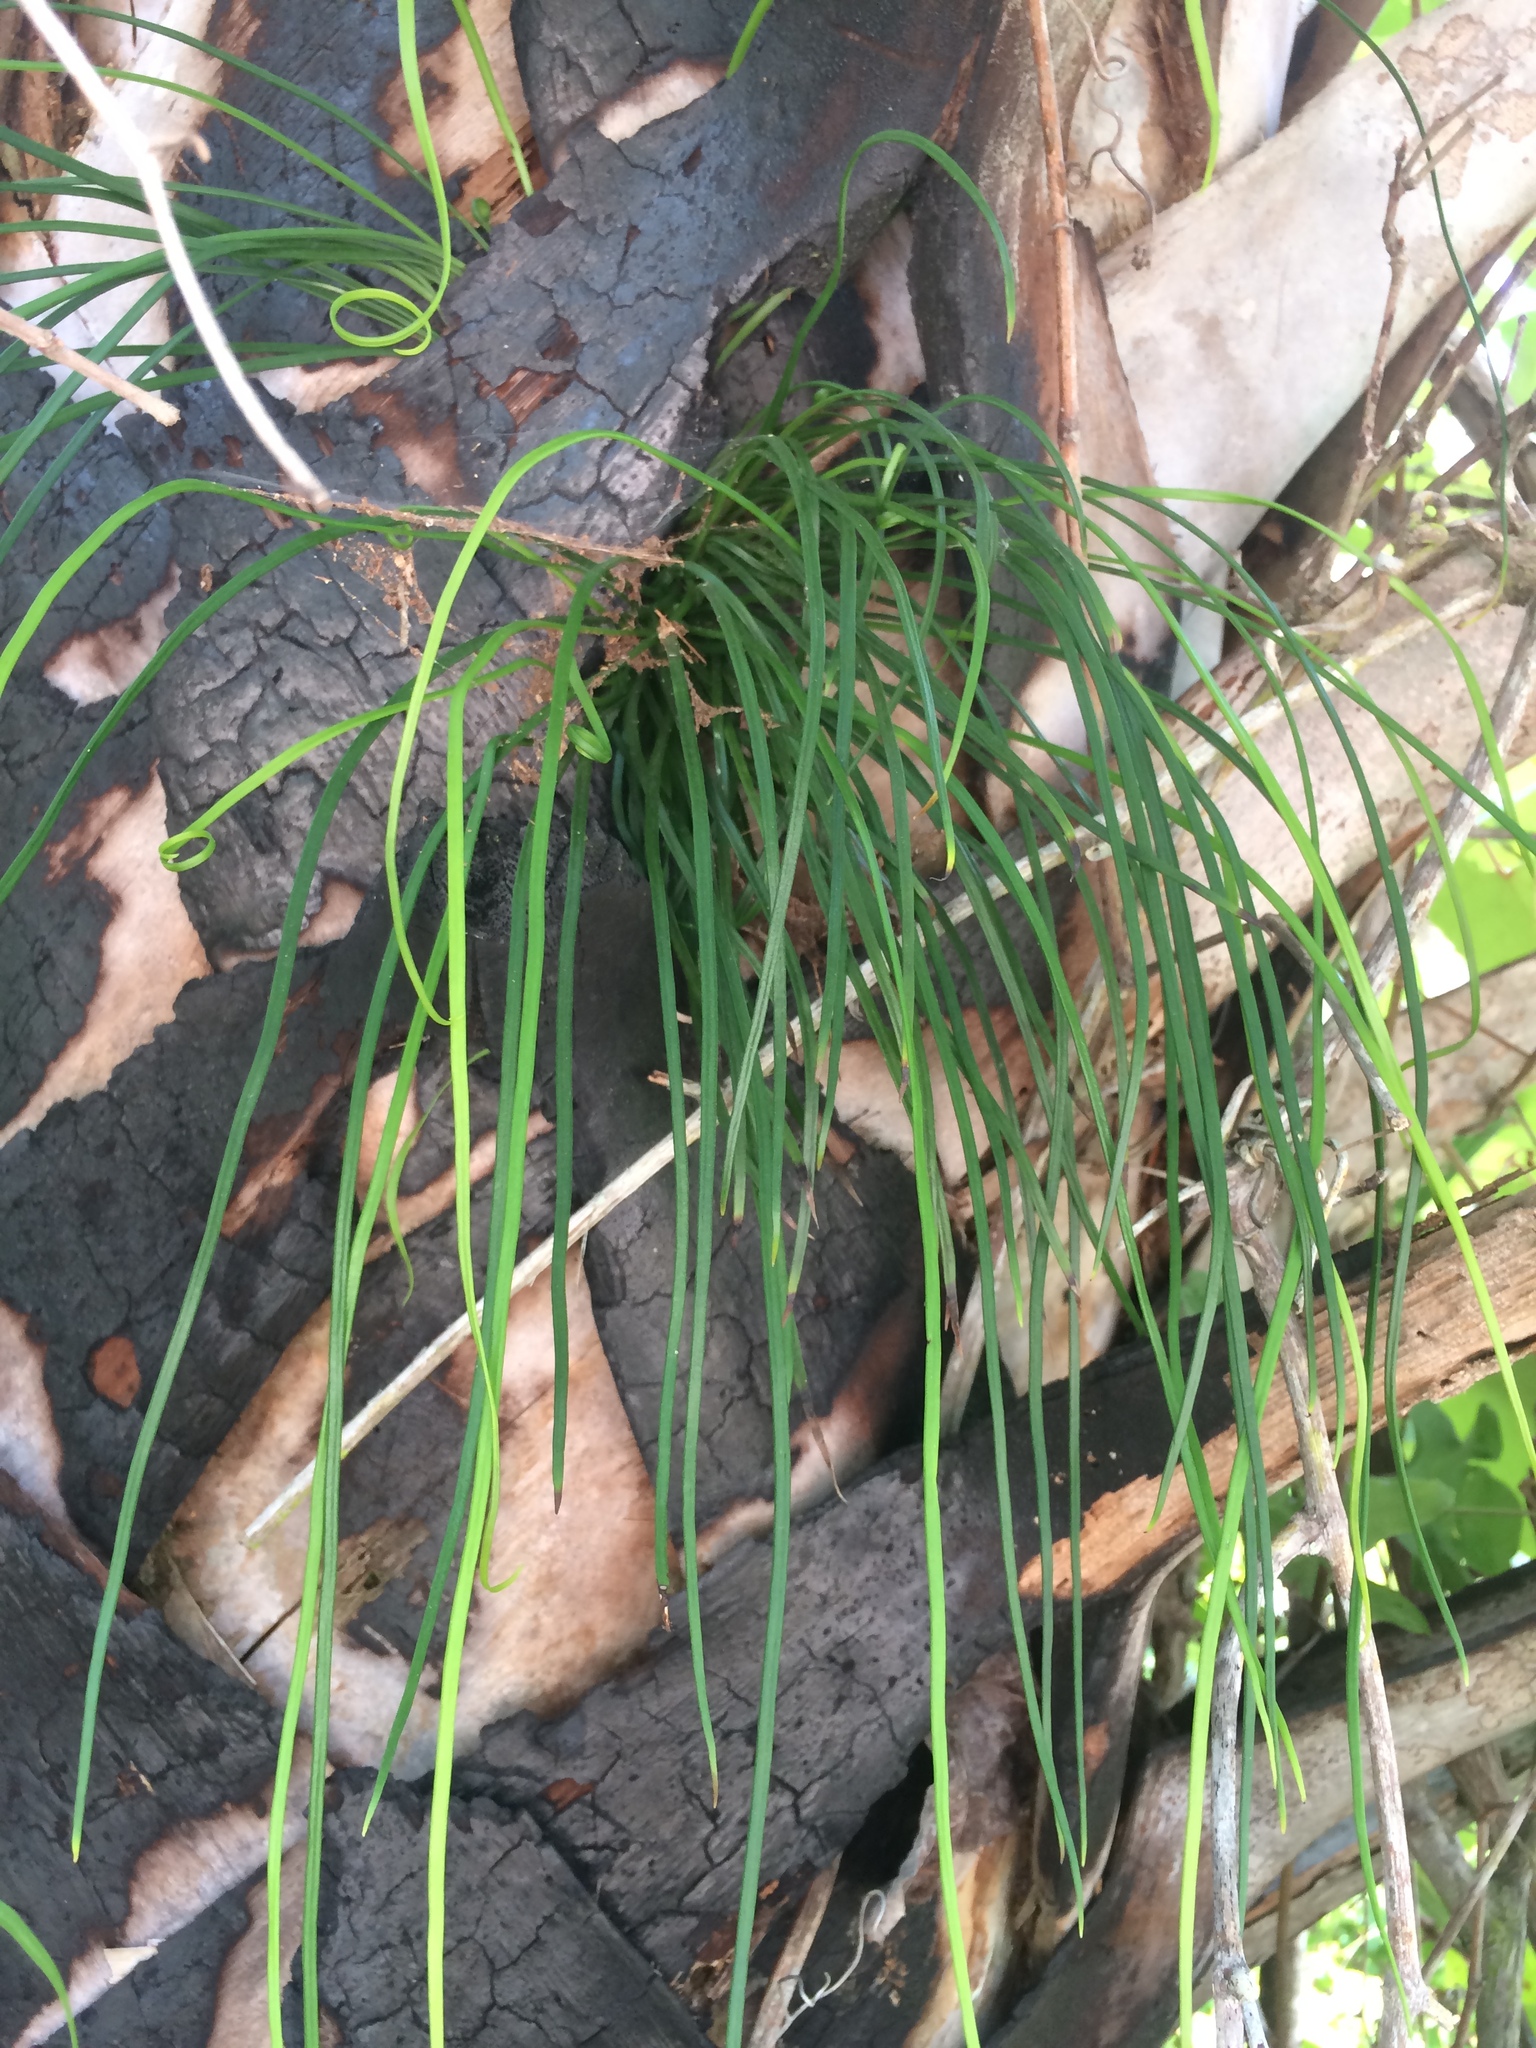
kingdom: Plantae
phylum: Tracheophyta
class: Polypodiopsida
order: Polypodiales
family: Pteridaceae
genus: Vittaria
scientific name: Vittaria lineata
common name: Shoestring fern
